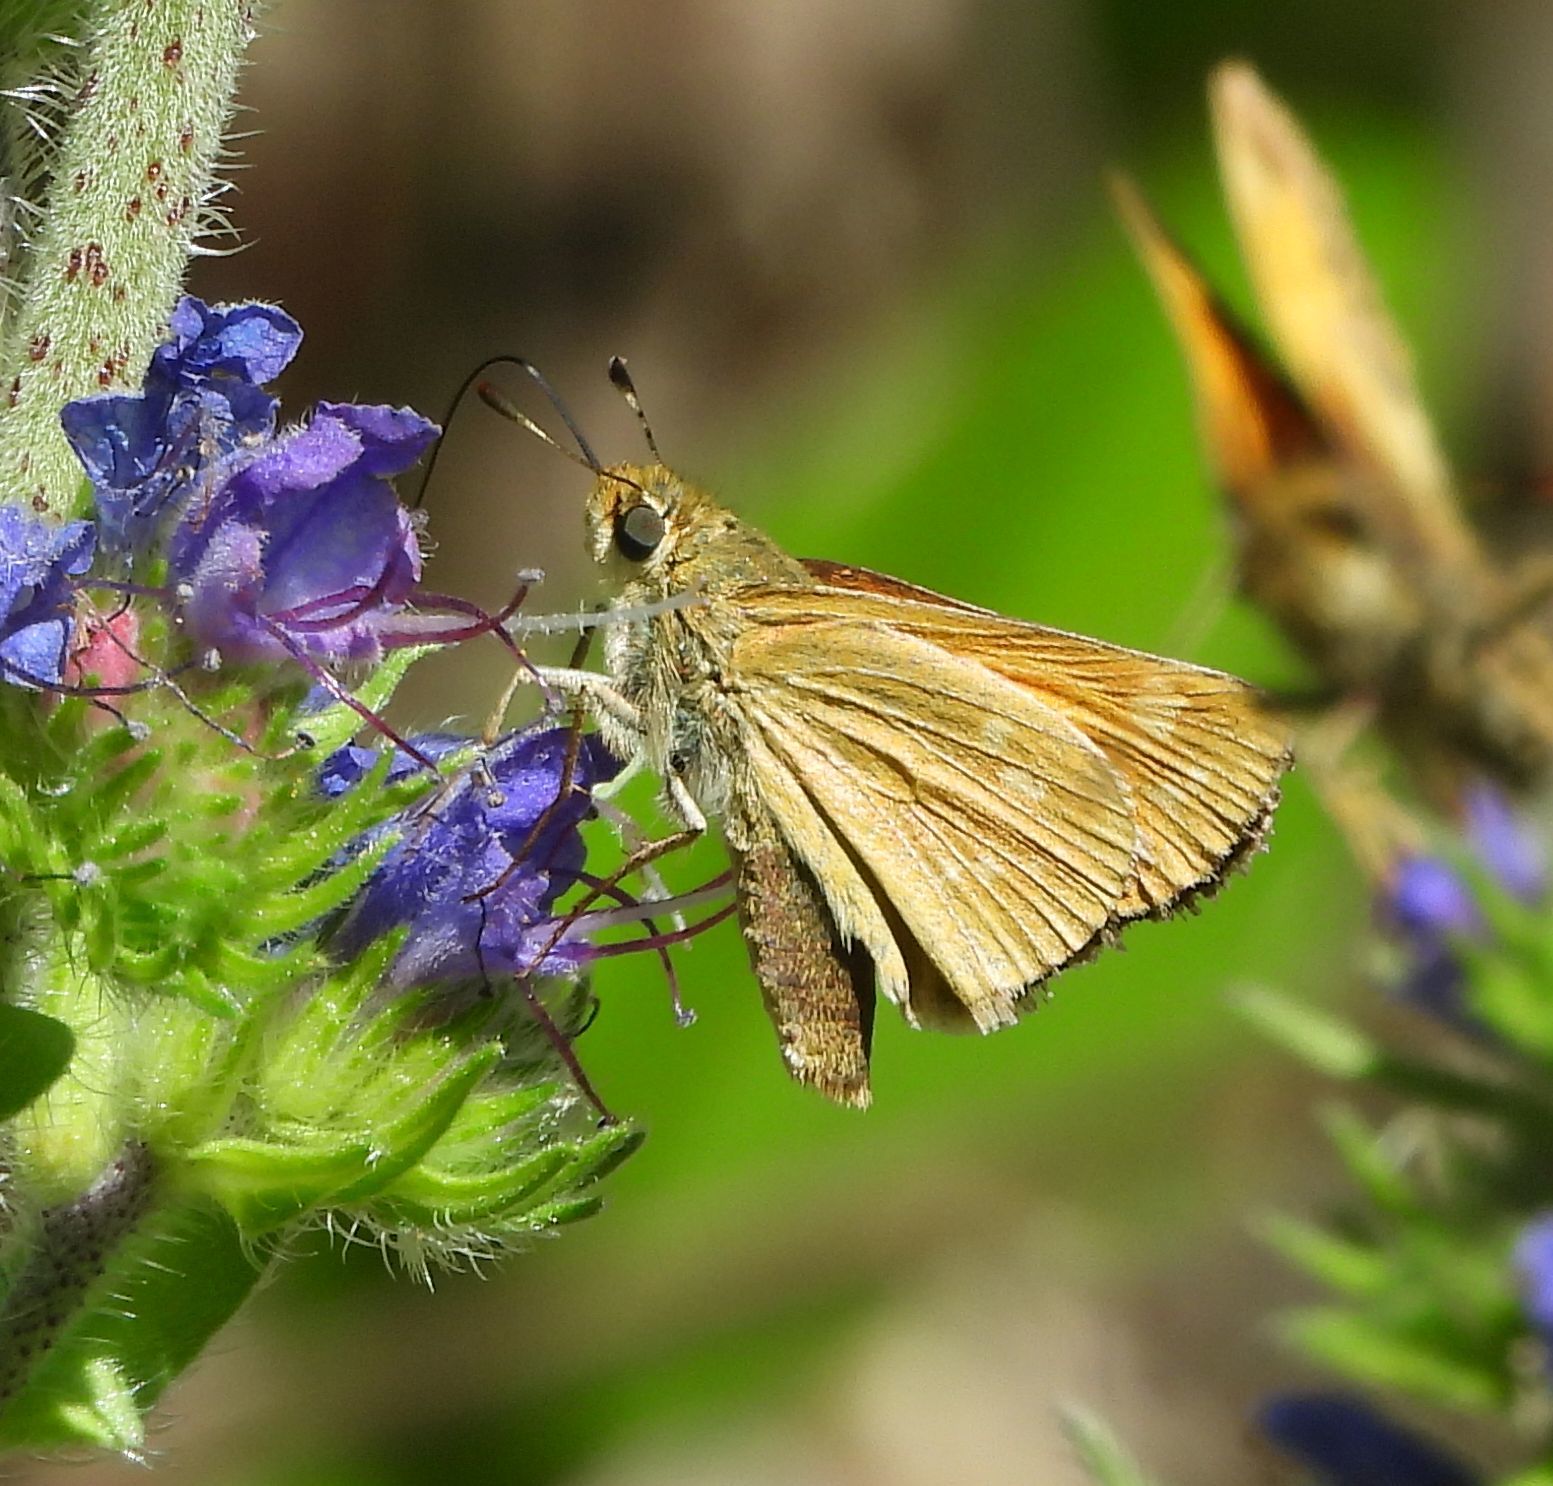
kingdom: Animalia
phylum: Arthropoda
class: Insecta
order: Lepidoptera
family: Hesperiidae
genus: Hesperia
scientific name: Hesperia sassacus
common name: Indian skipper
